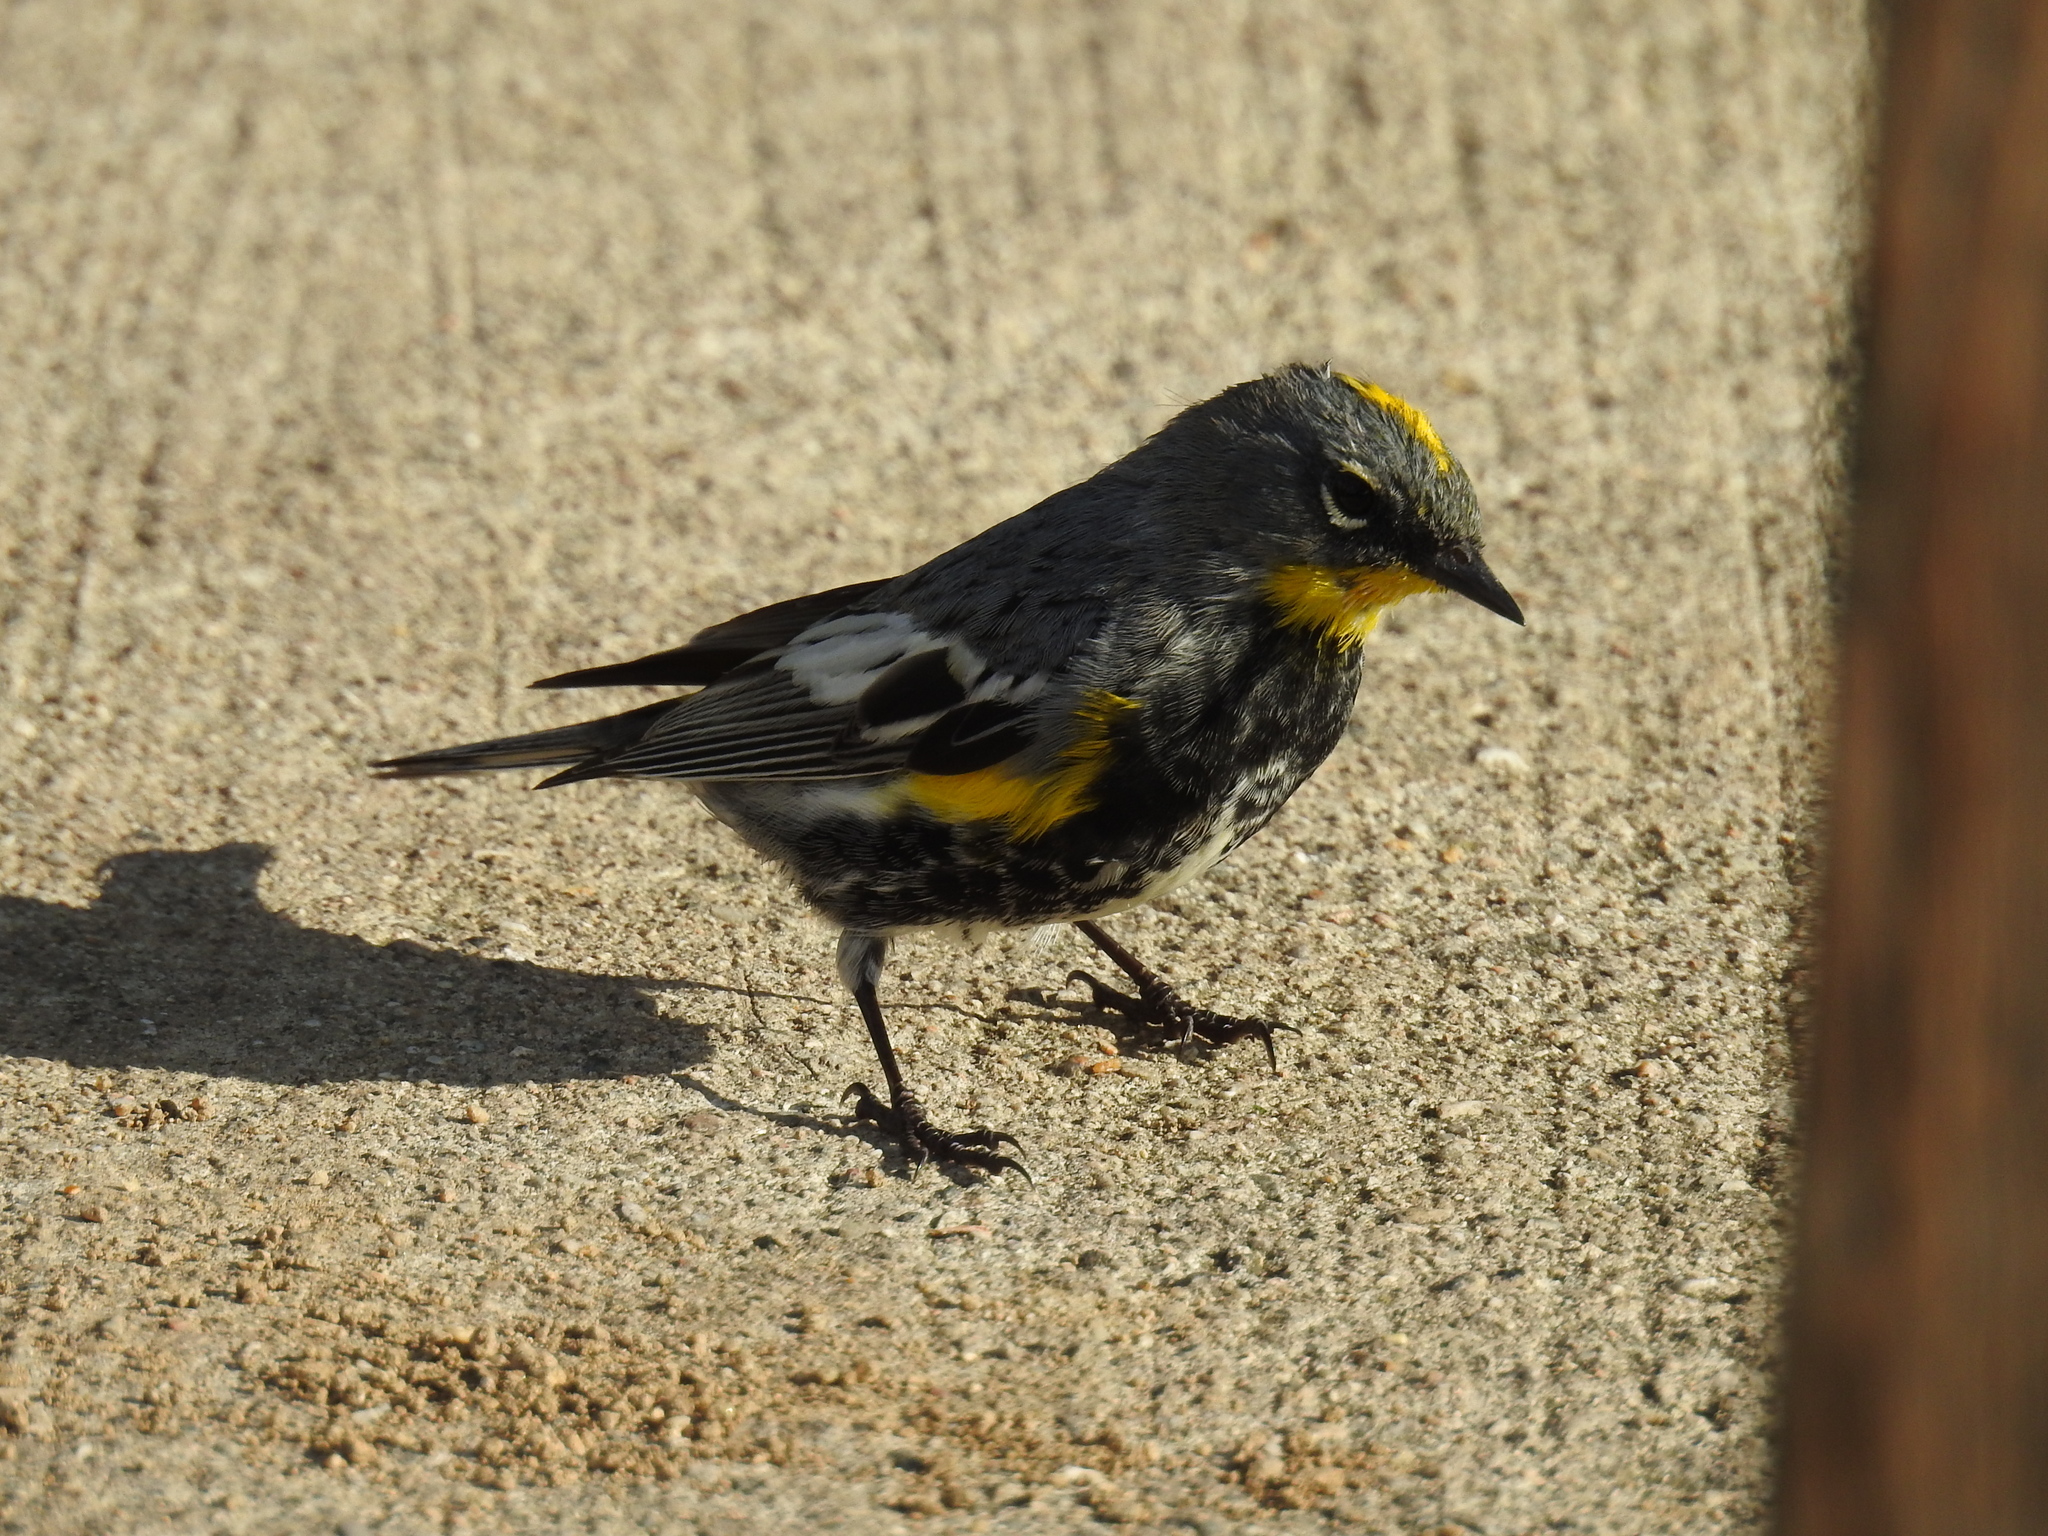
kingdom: Animalia
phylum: Chordata
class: Aves
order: Passeriformes
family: Parulidae
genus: Setophaga
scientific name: Setophaga auduboni
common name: Audubon's warbler
